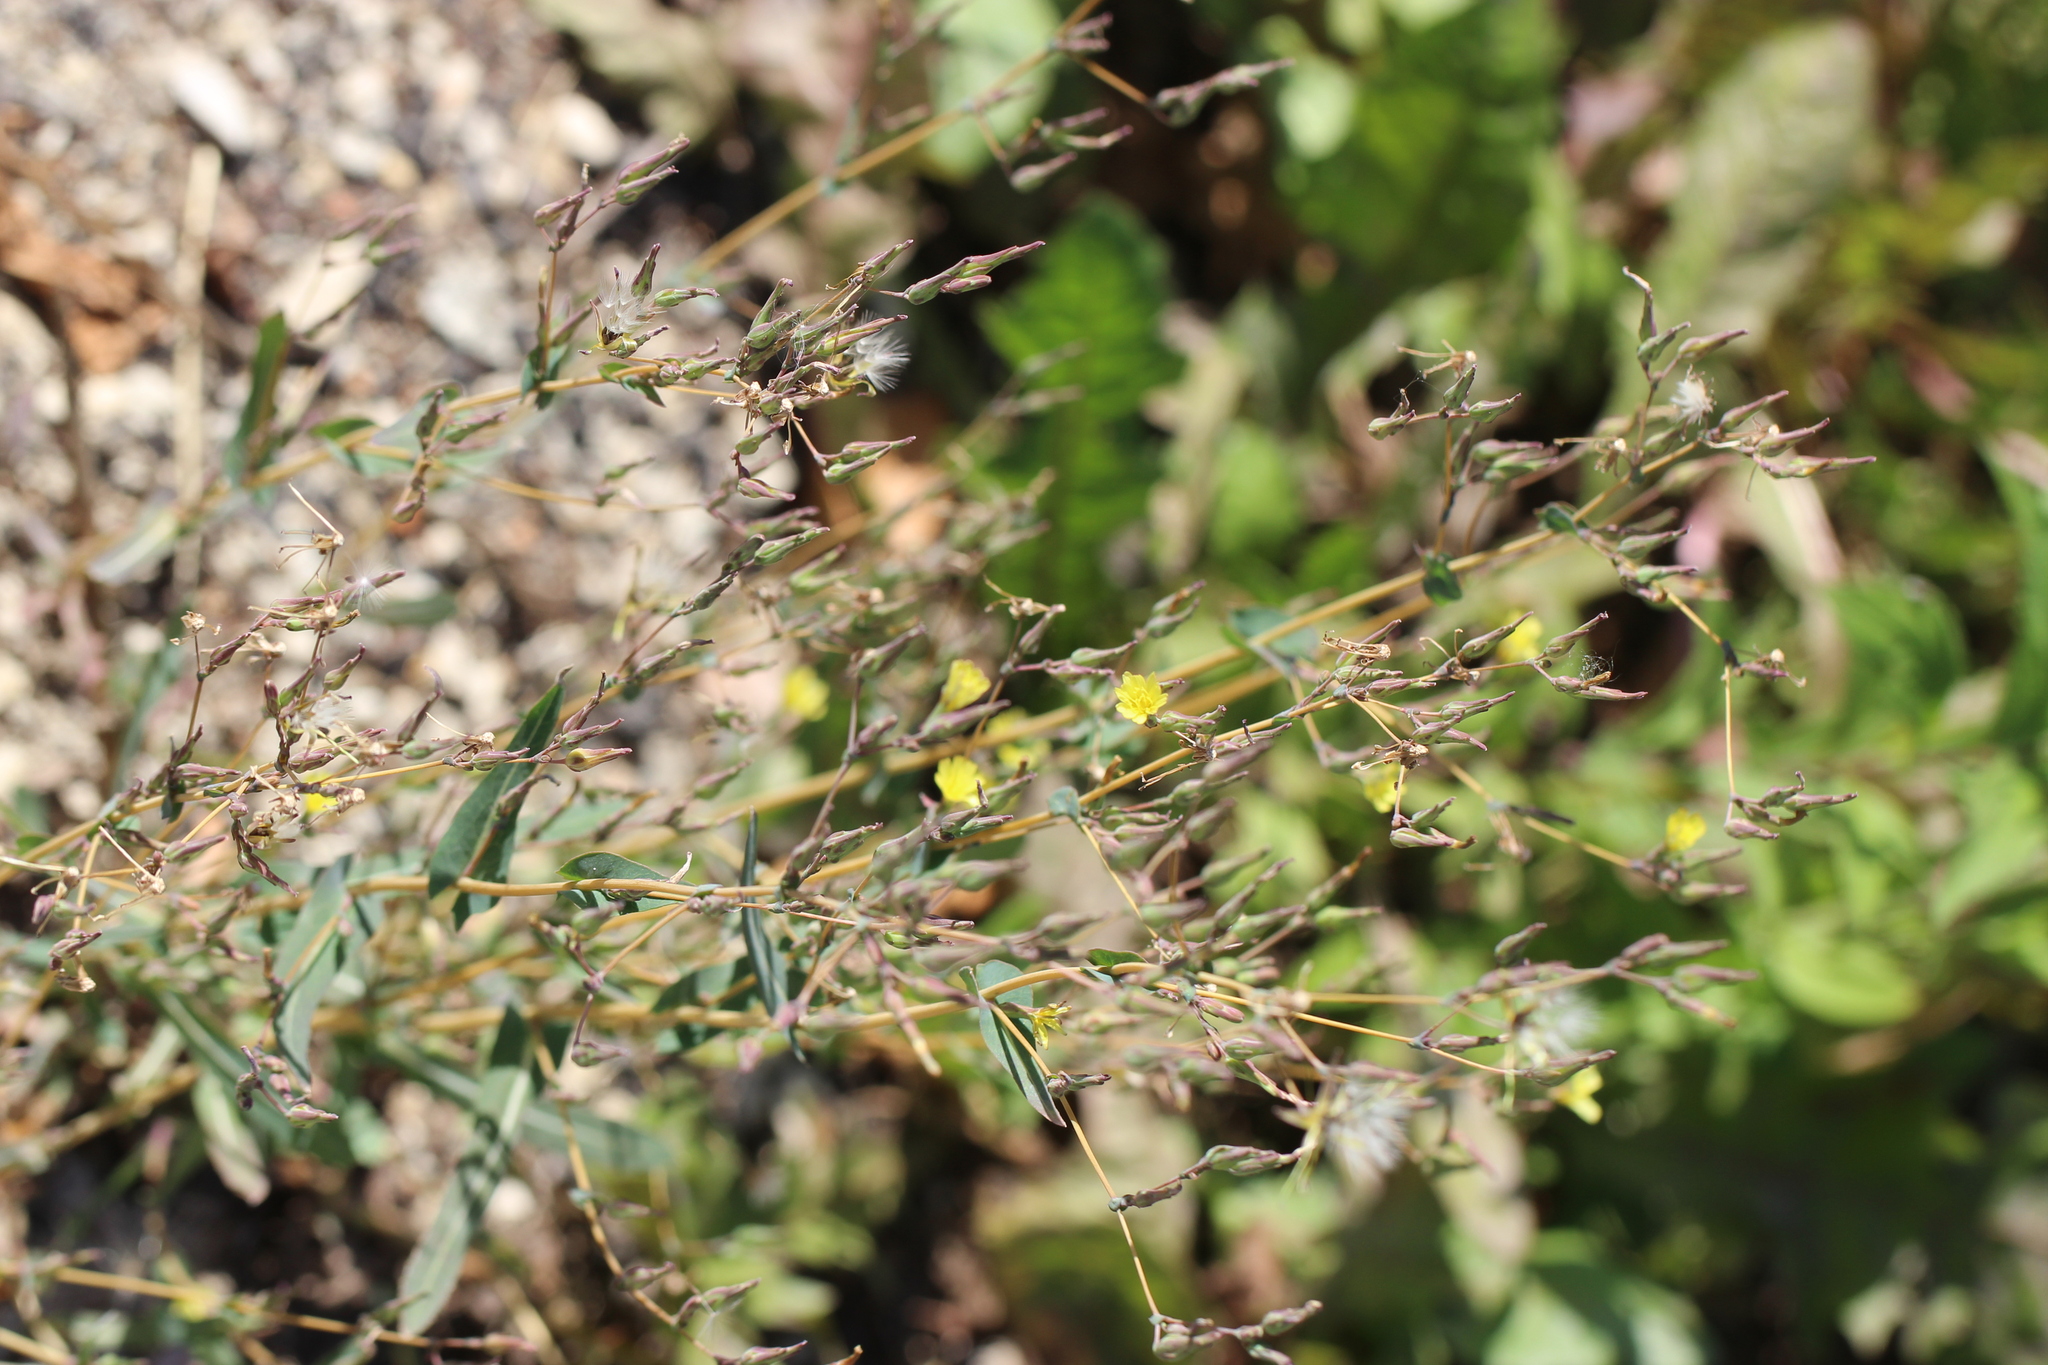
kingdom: Plantae
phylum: Tracheophyta
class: Magnoliopsida
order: Asterales
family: Asteraceae
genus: Lactuca
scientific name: Lactuca serriola
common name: Prickly lettuce
